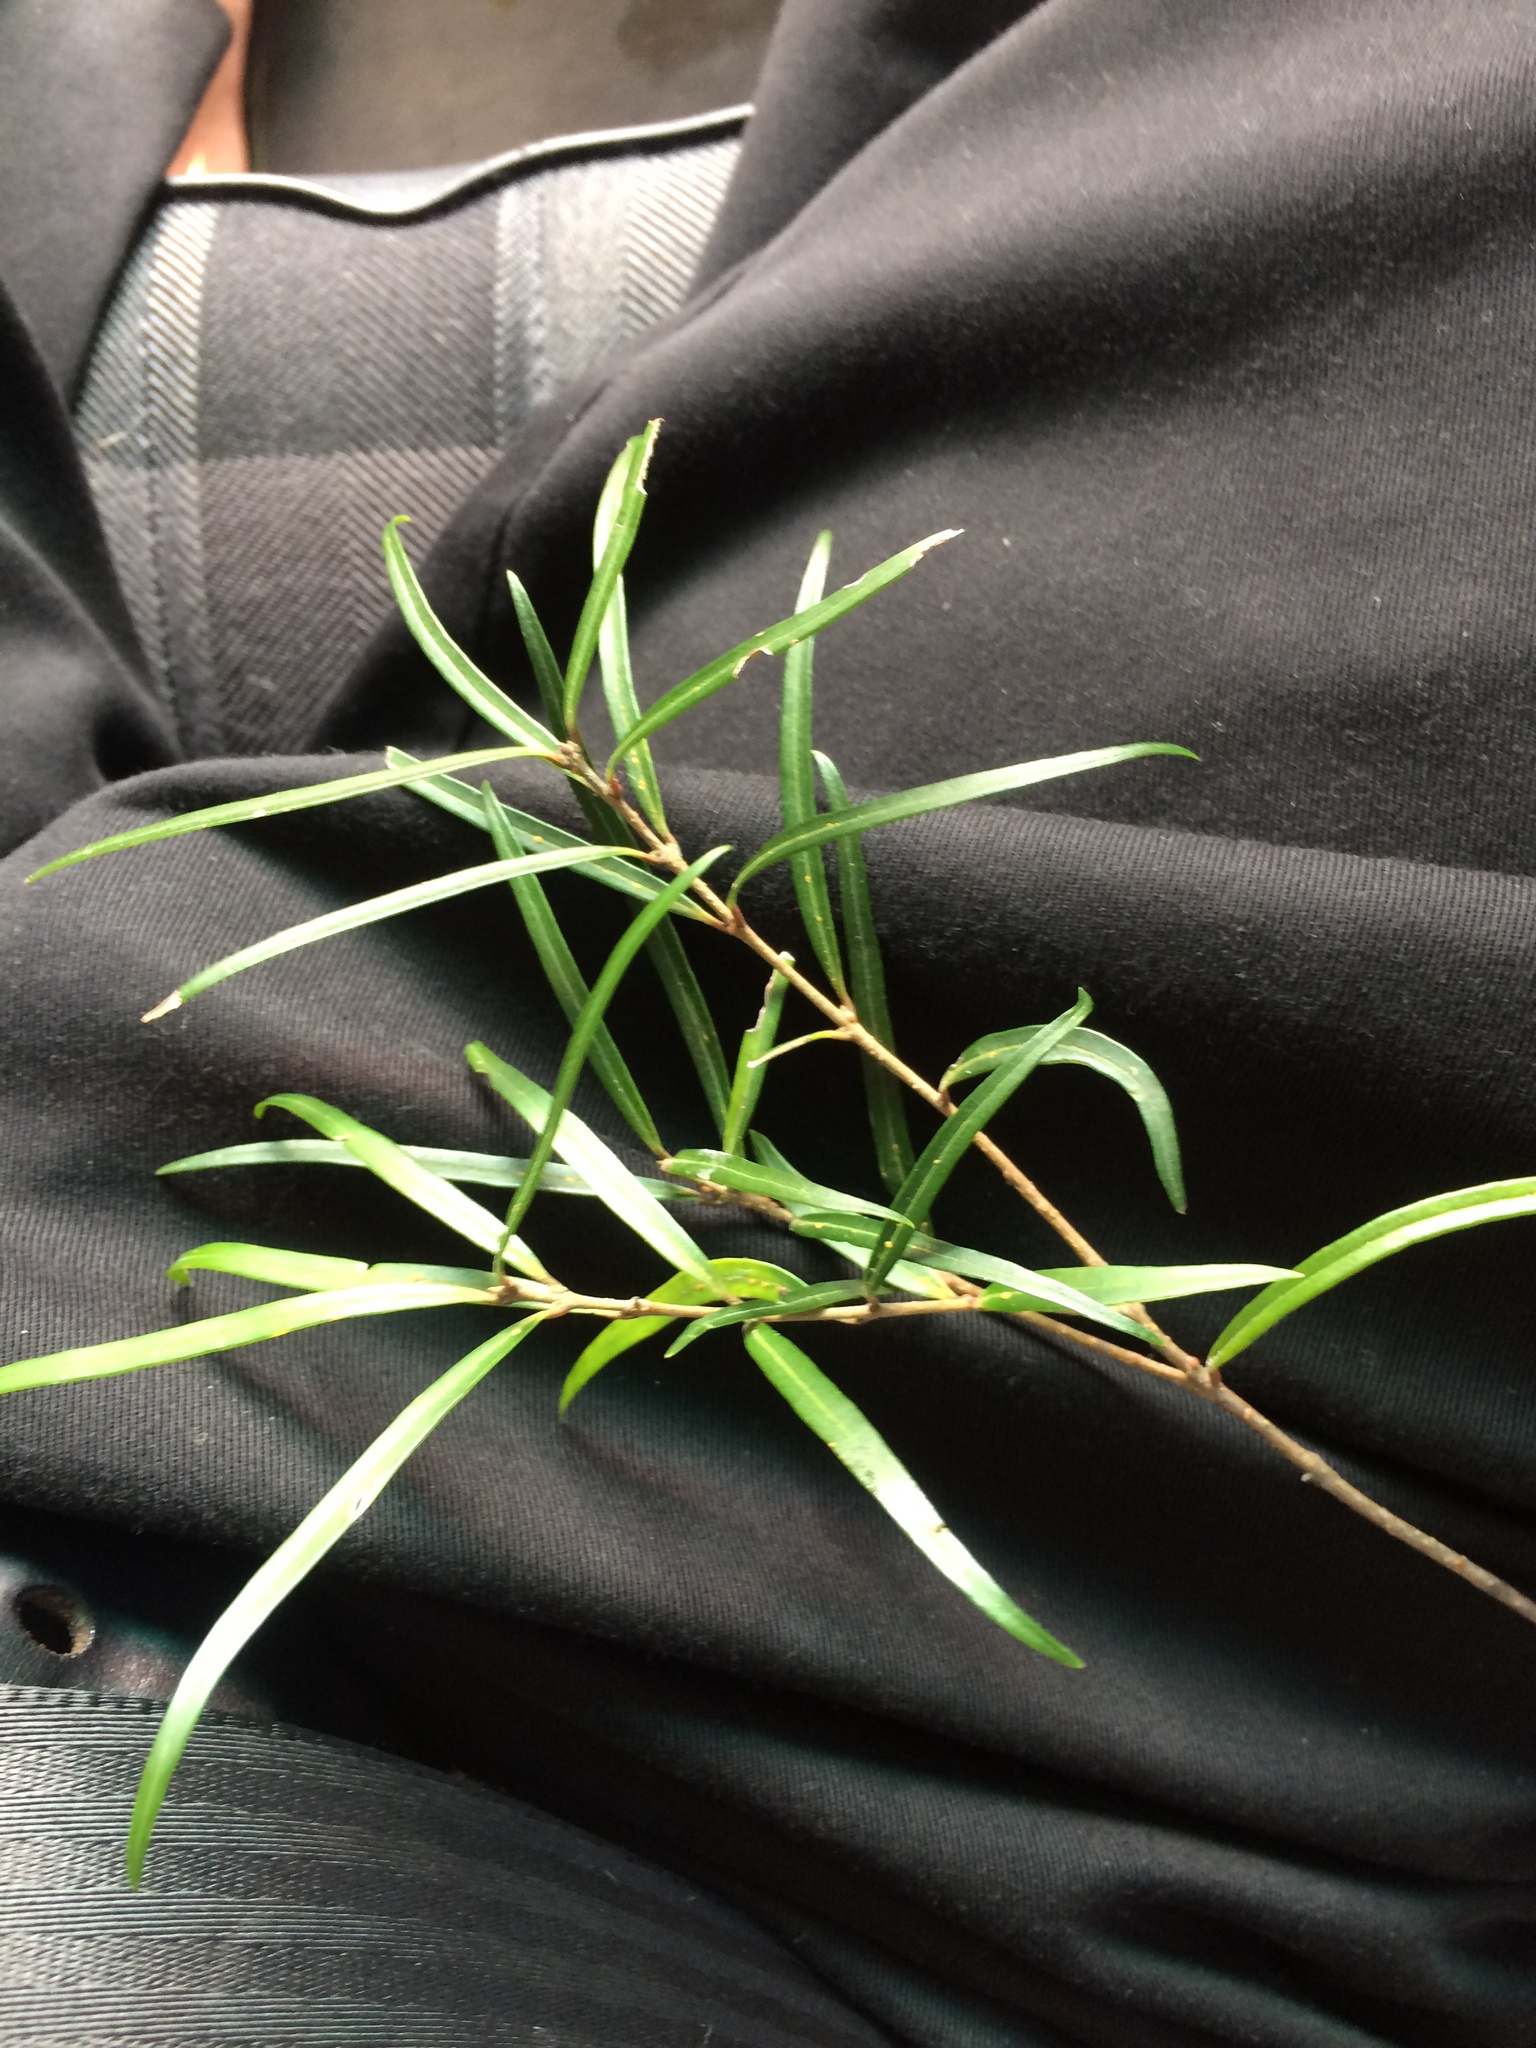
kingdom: Plantae
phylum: Tracheophyta
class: Magnoliopsida
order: Lamiales
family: Oleaceae
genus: Nestegis
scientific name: Nestegis montana
